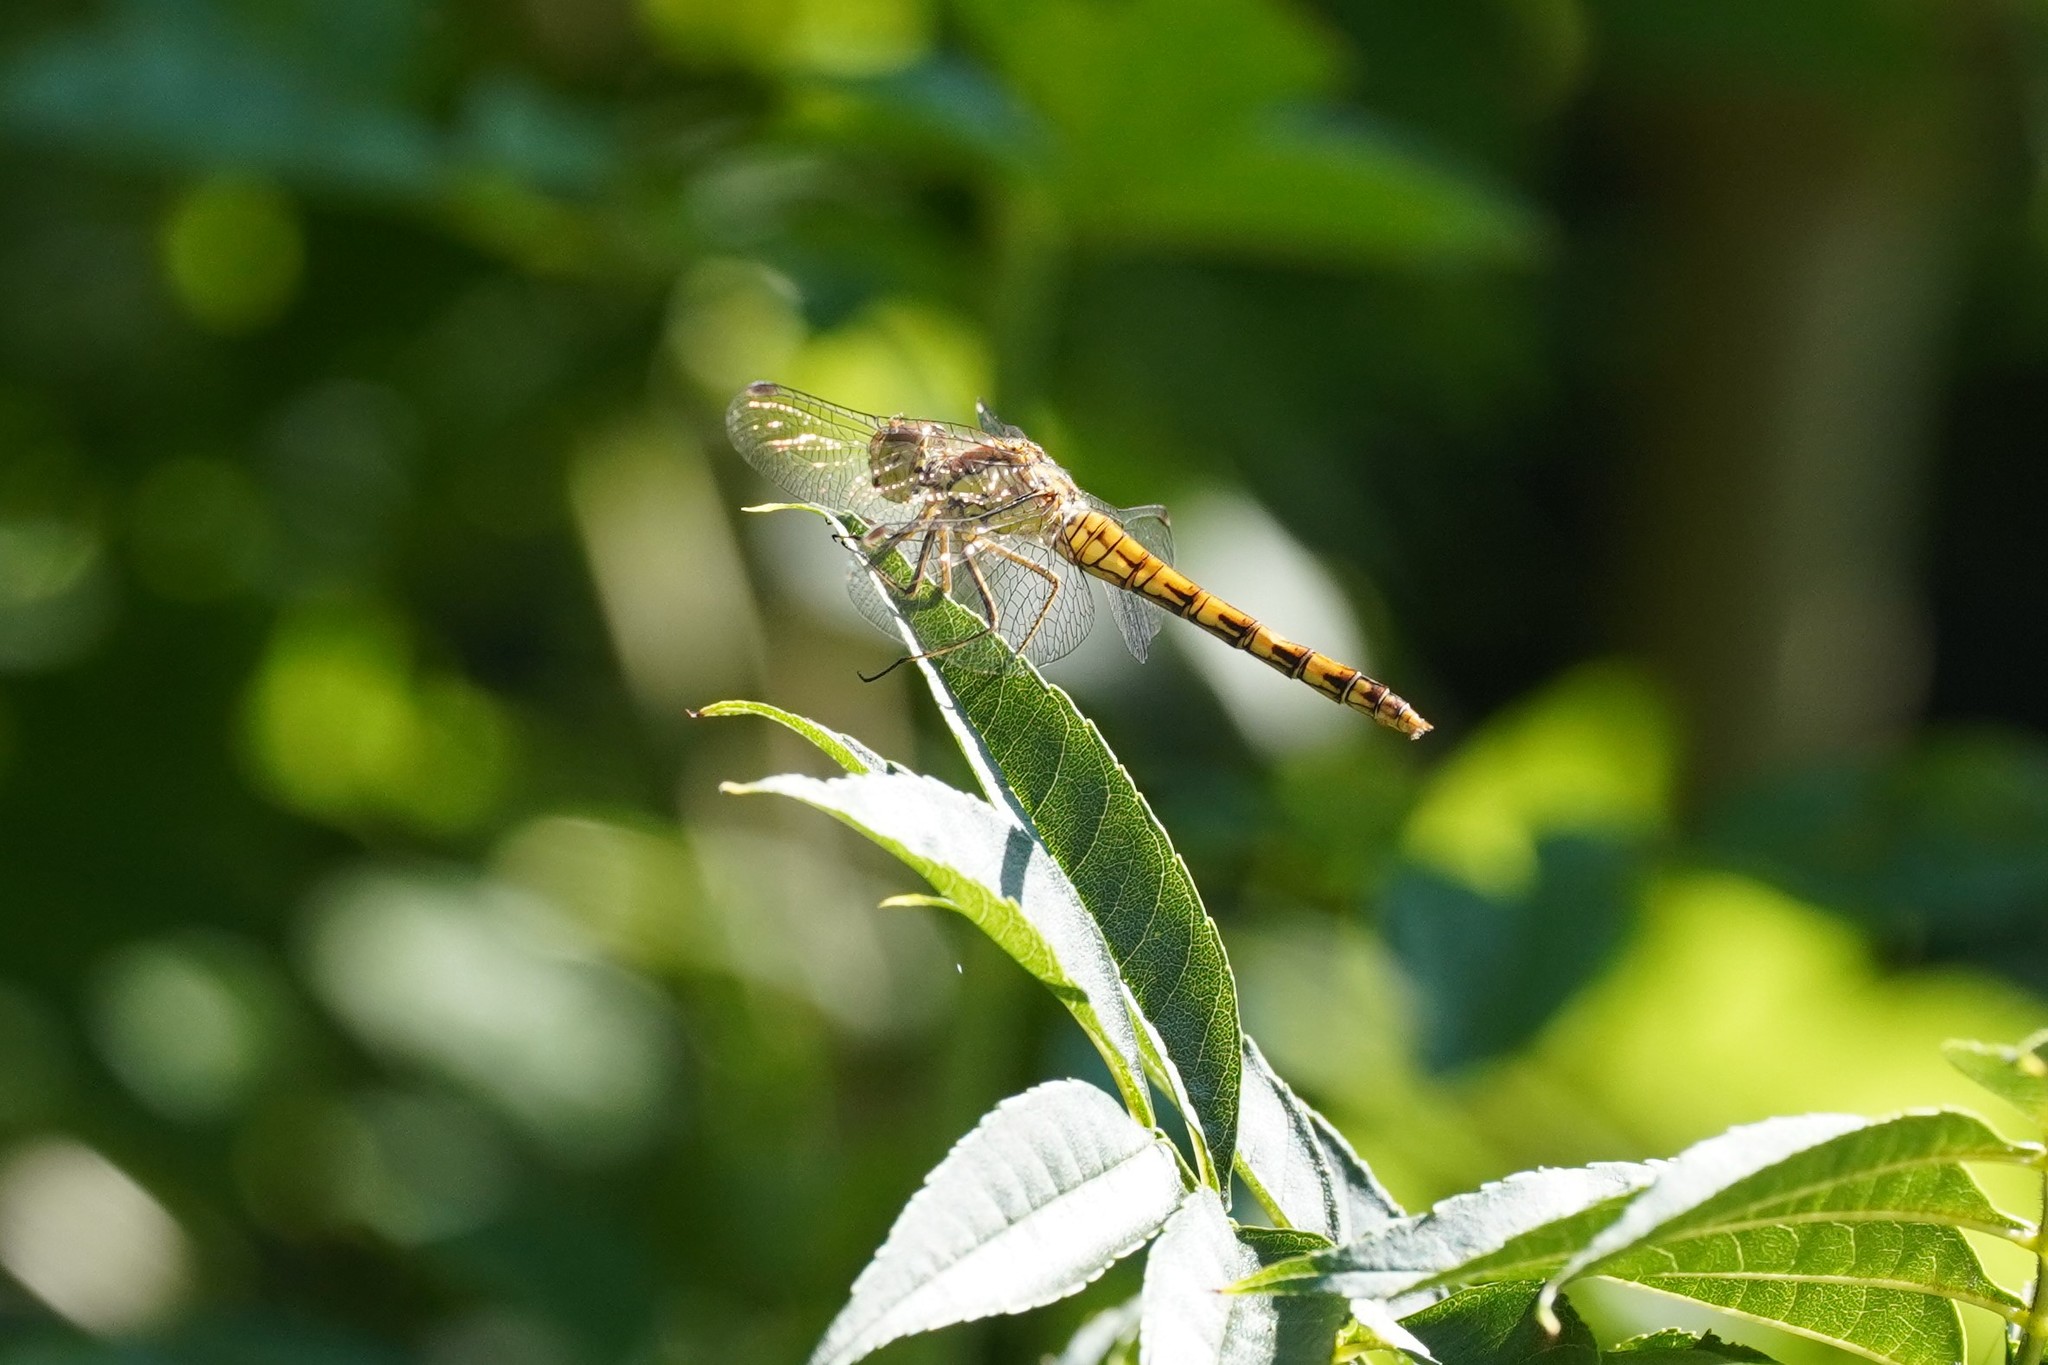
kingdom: Animalia
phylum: Arthropoda
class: Insecta
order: Odonata
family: Libellulidae
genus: Sympetrum
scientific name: Sympetrum striolatum
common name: Common darter
